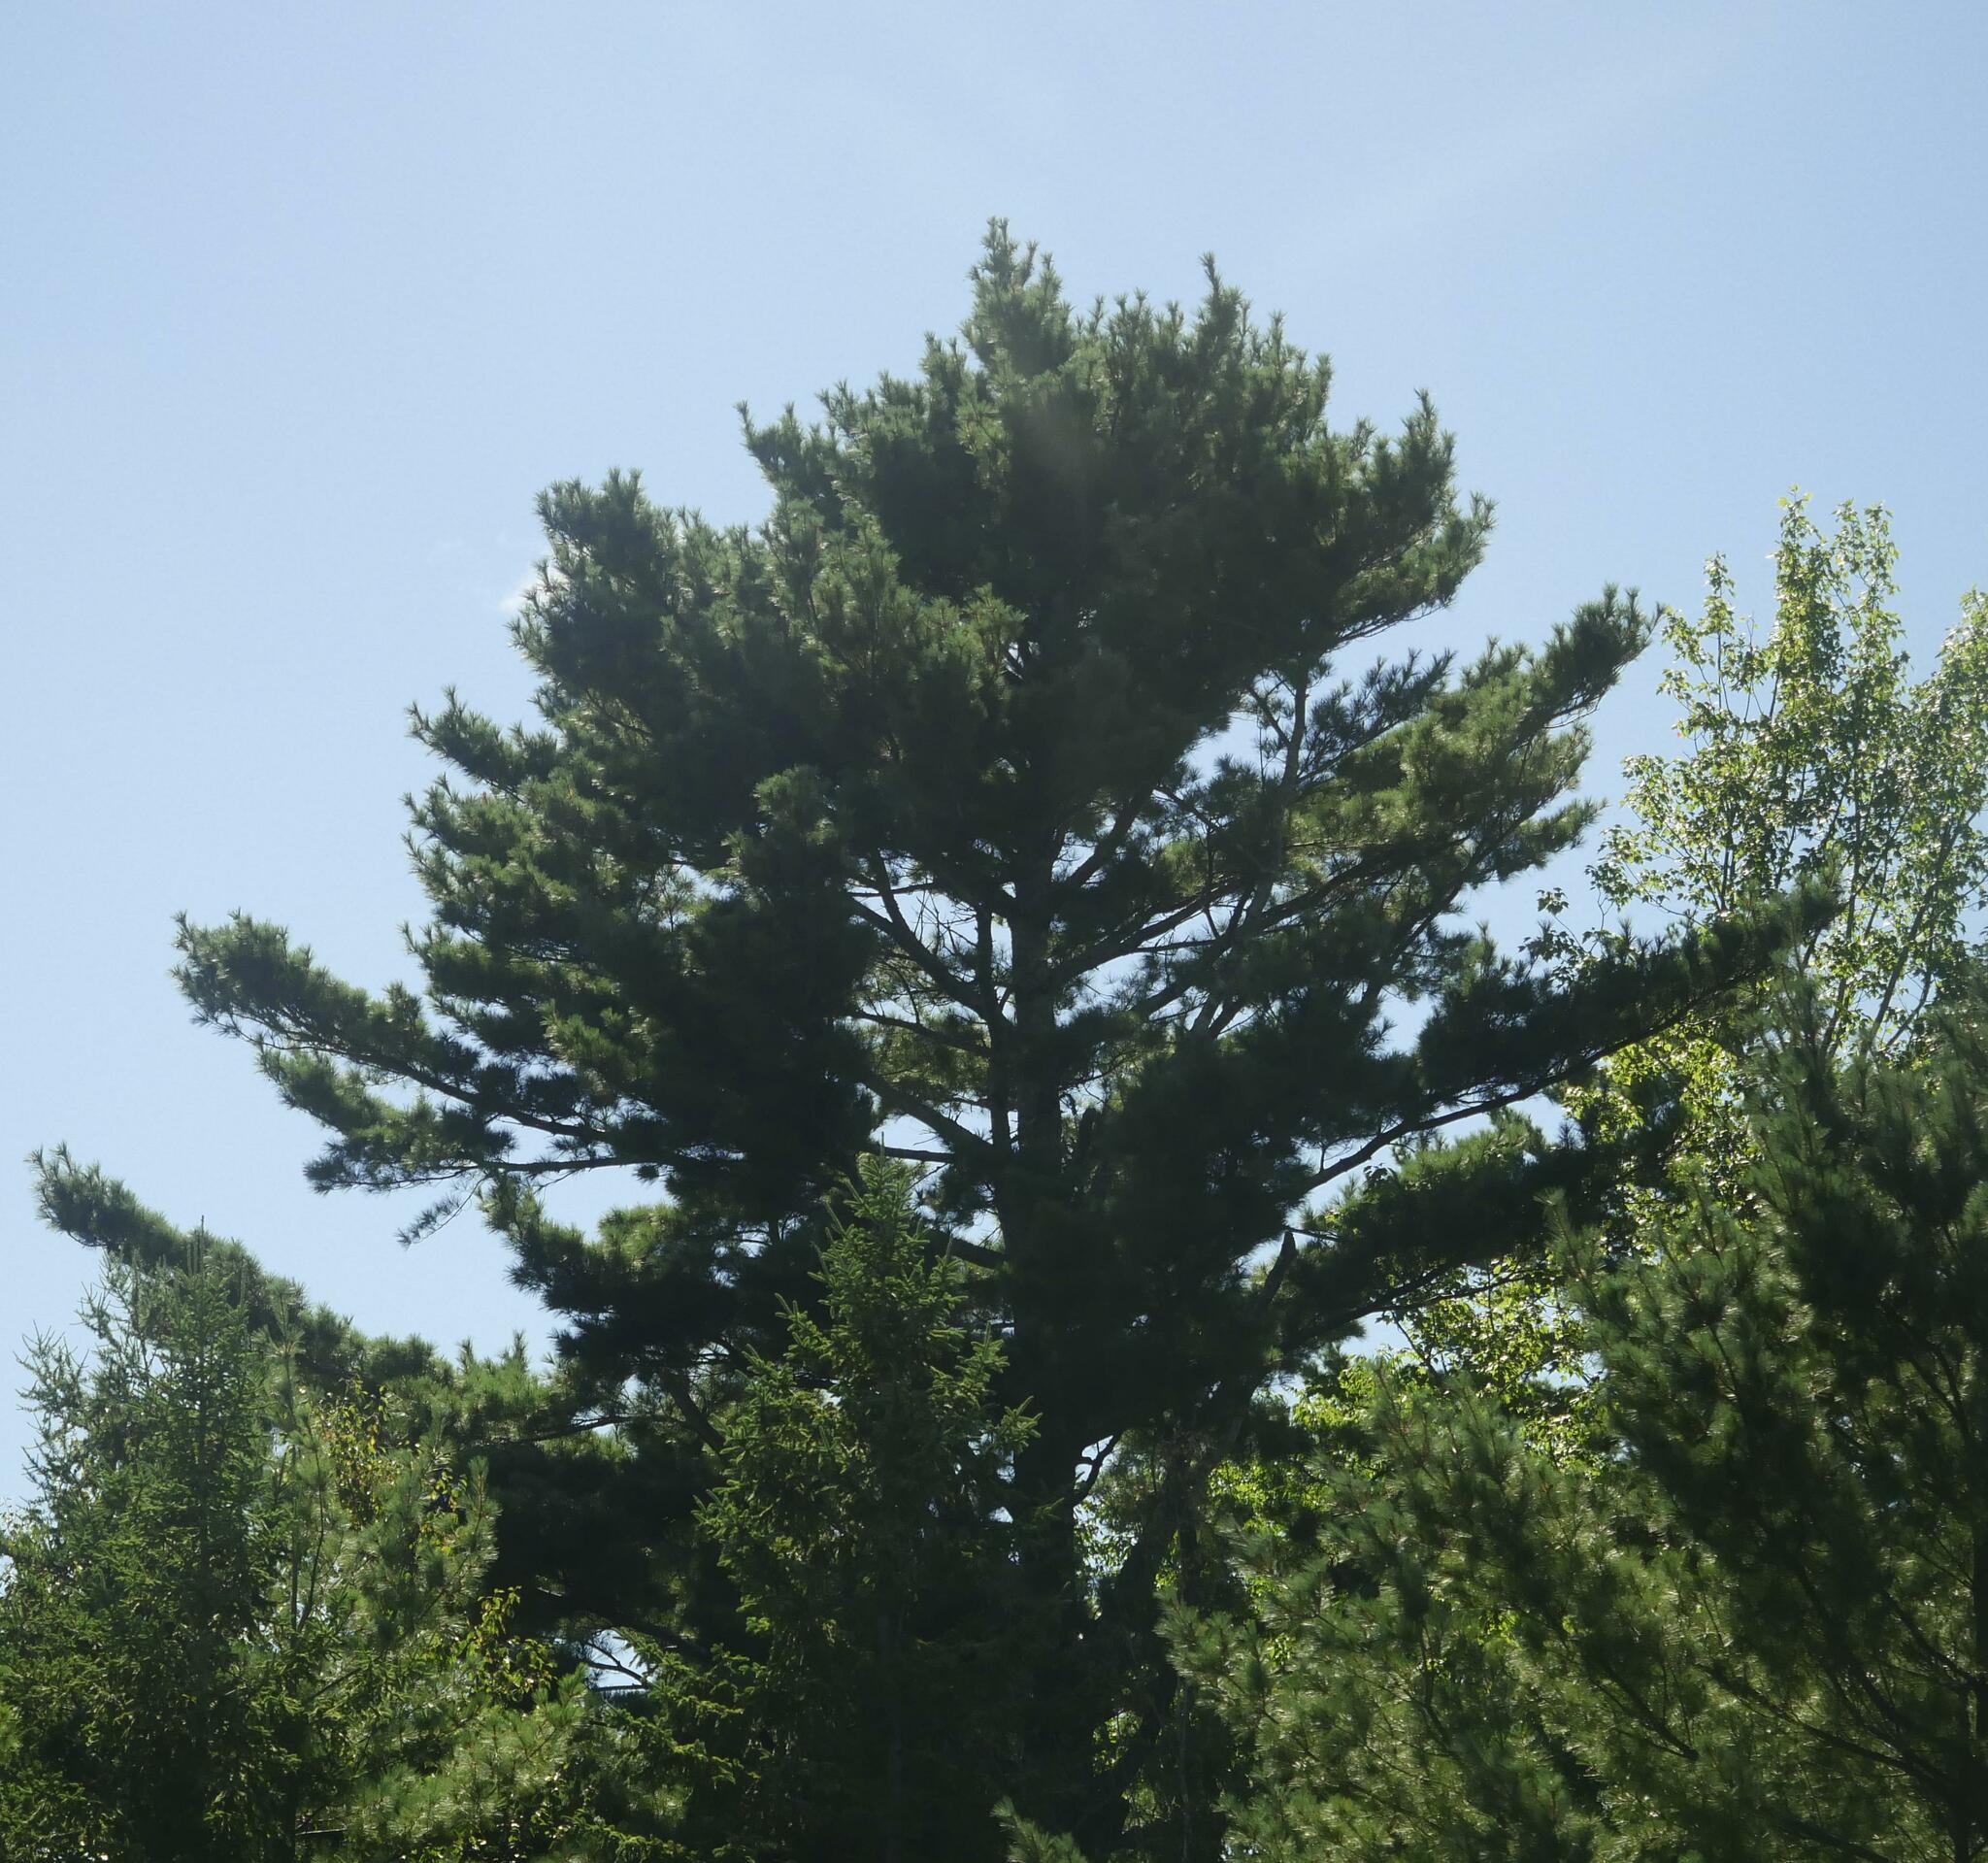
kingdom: Plantae
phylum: Tracheophyta
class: Pinopsida
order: Pinales
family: Pinaceae
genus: Pinus
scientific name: Pinus strobus
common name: Weymouth pine
